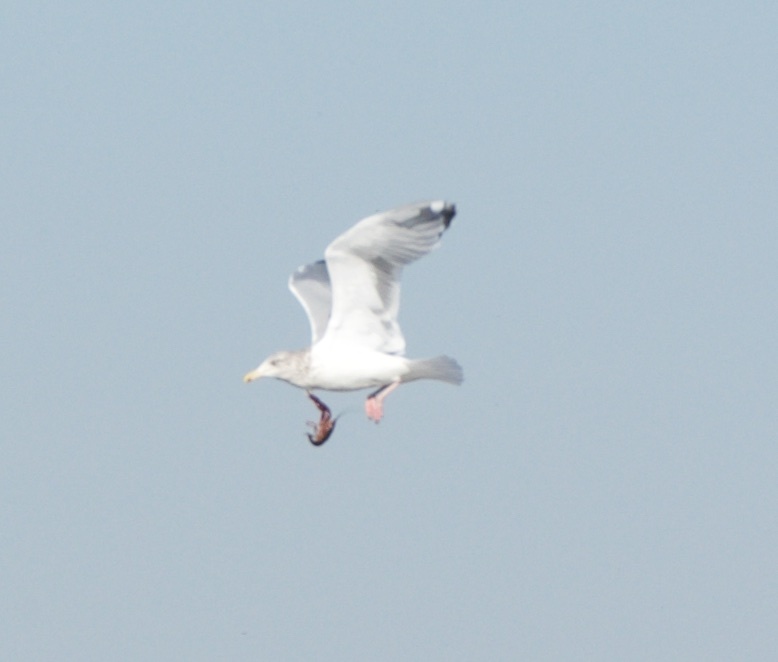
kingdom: Animalia
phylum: Chordata
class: Aves
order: Charadriiformes
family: Laridae
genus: Larus
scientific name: Larus argentatus
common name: Herring gull
